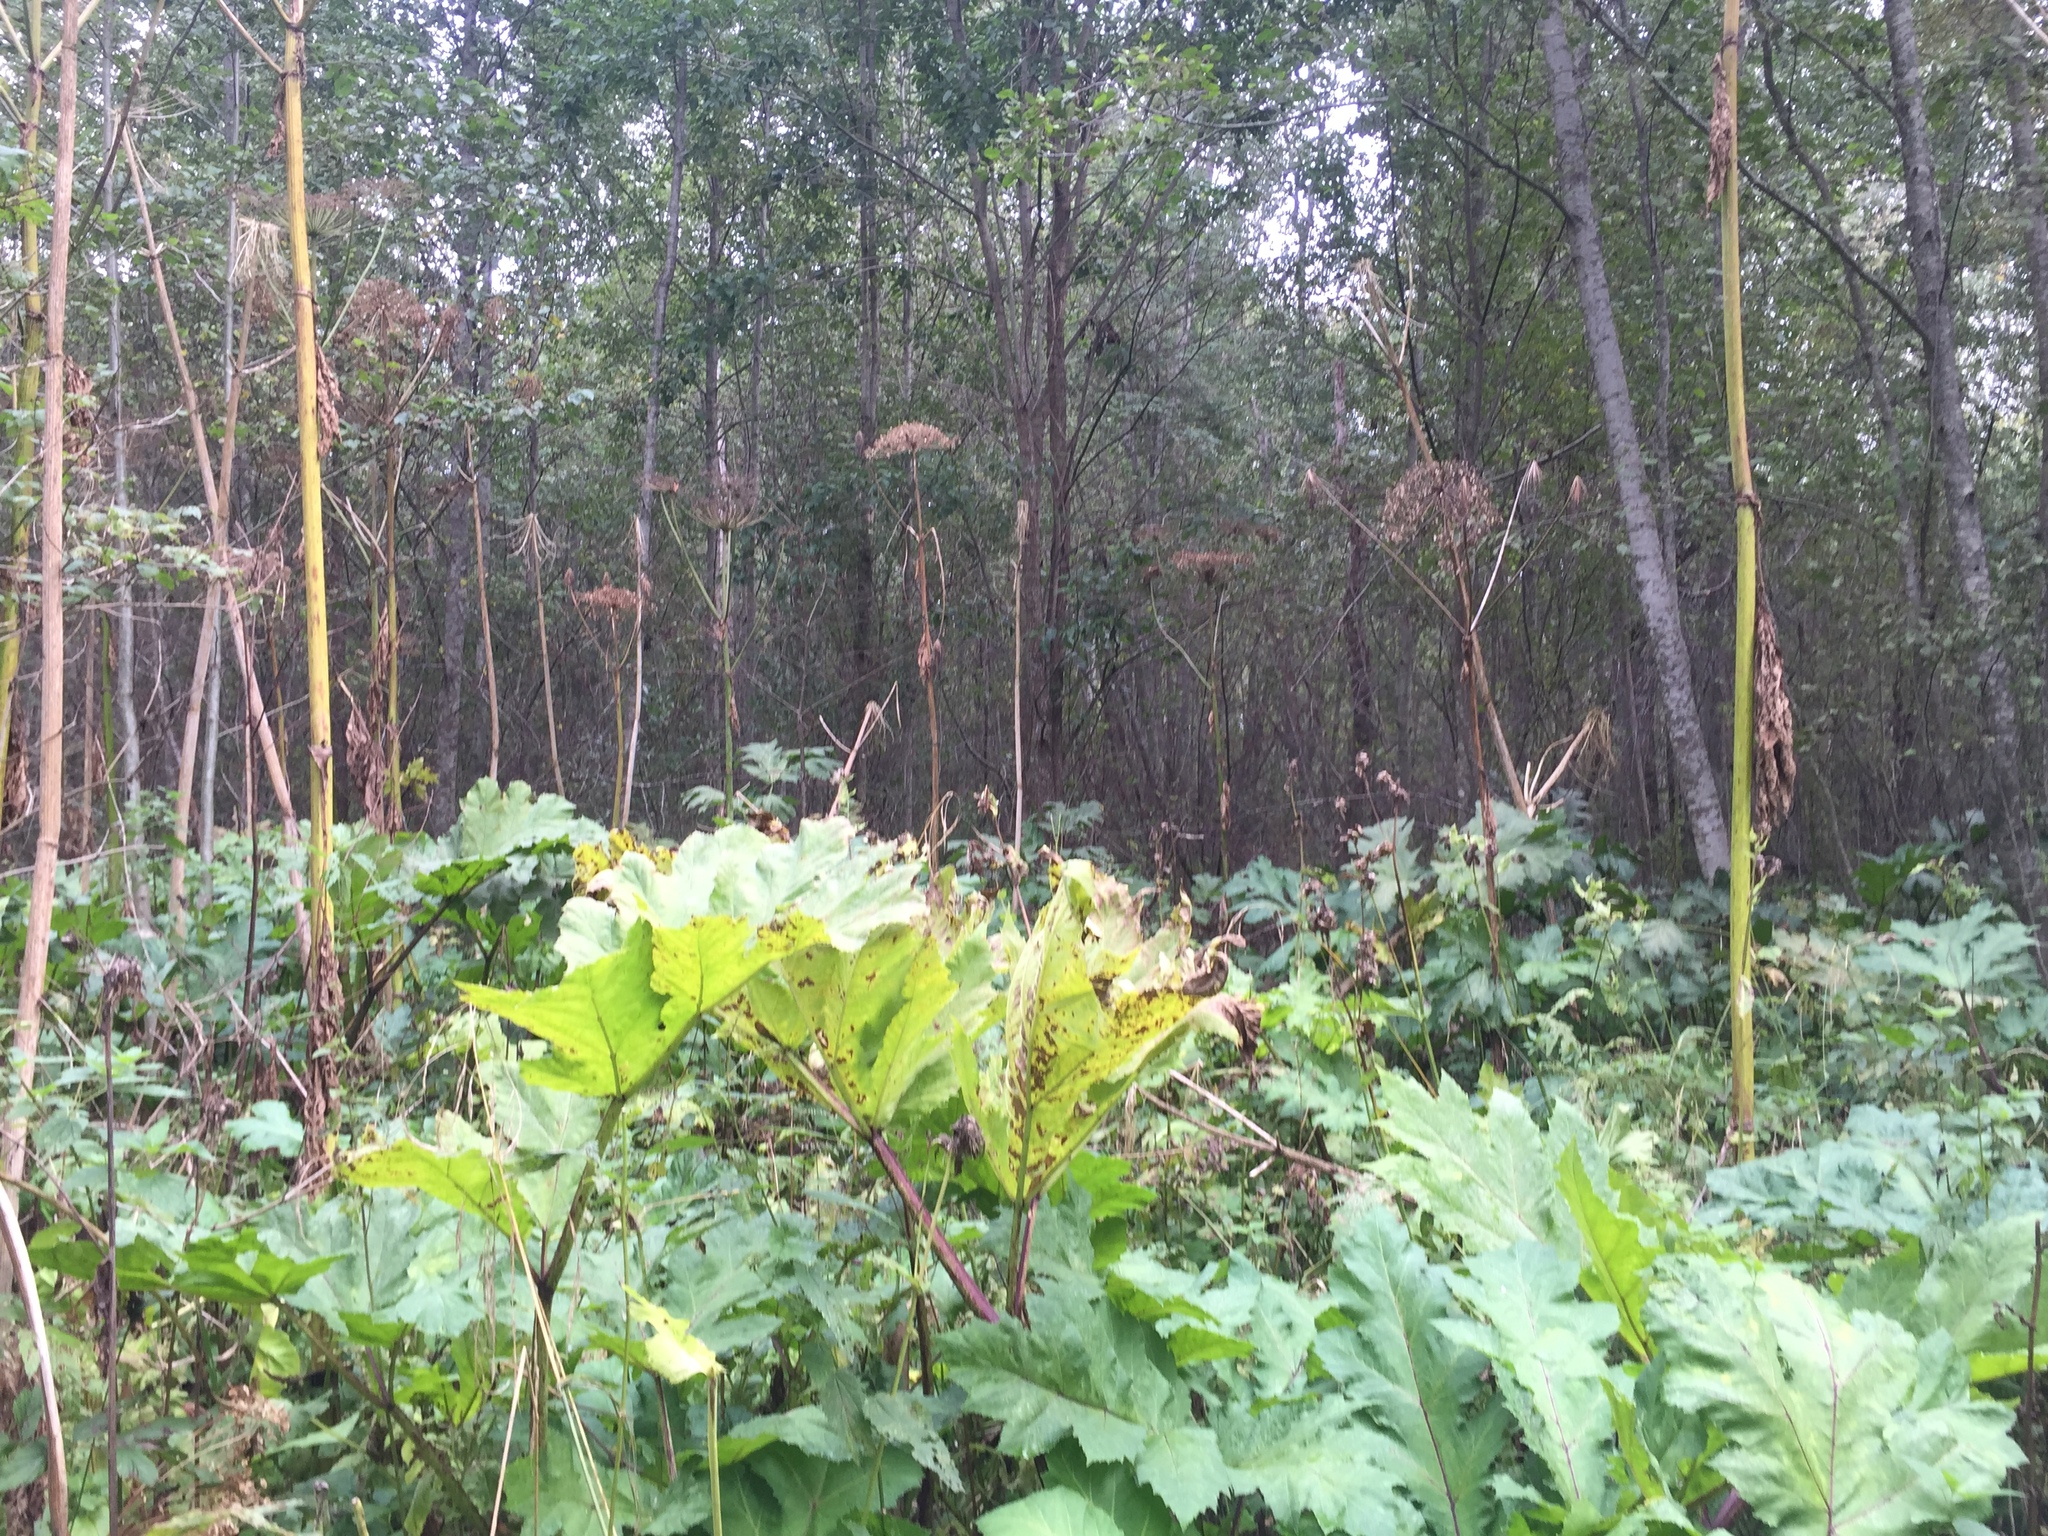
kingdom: Plantae
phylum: Tracheophyta
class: Magnoliopsida
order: Apiales
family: Apiaceae
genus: Heracleum
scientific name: Heracleum sosnowskyi
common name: Sosnowsky's hogweed
